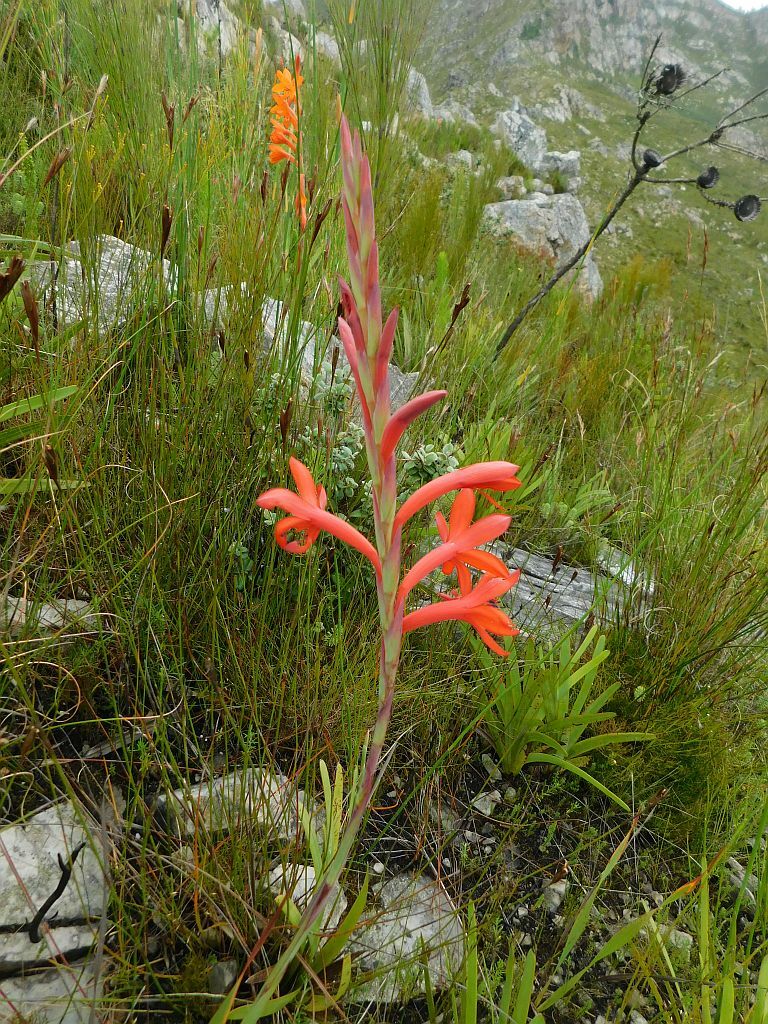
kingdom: Plantae
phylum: Tracheophyta
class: Liliopsida
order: Asparagales
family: Iridaceae
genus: Watsonia
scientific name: Watsonia schlechteri
